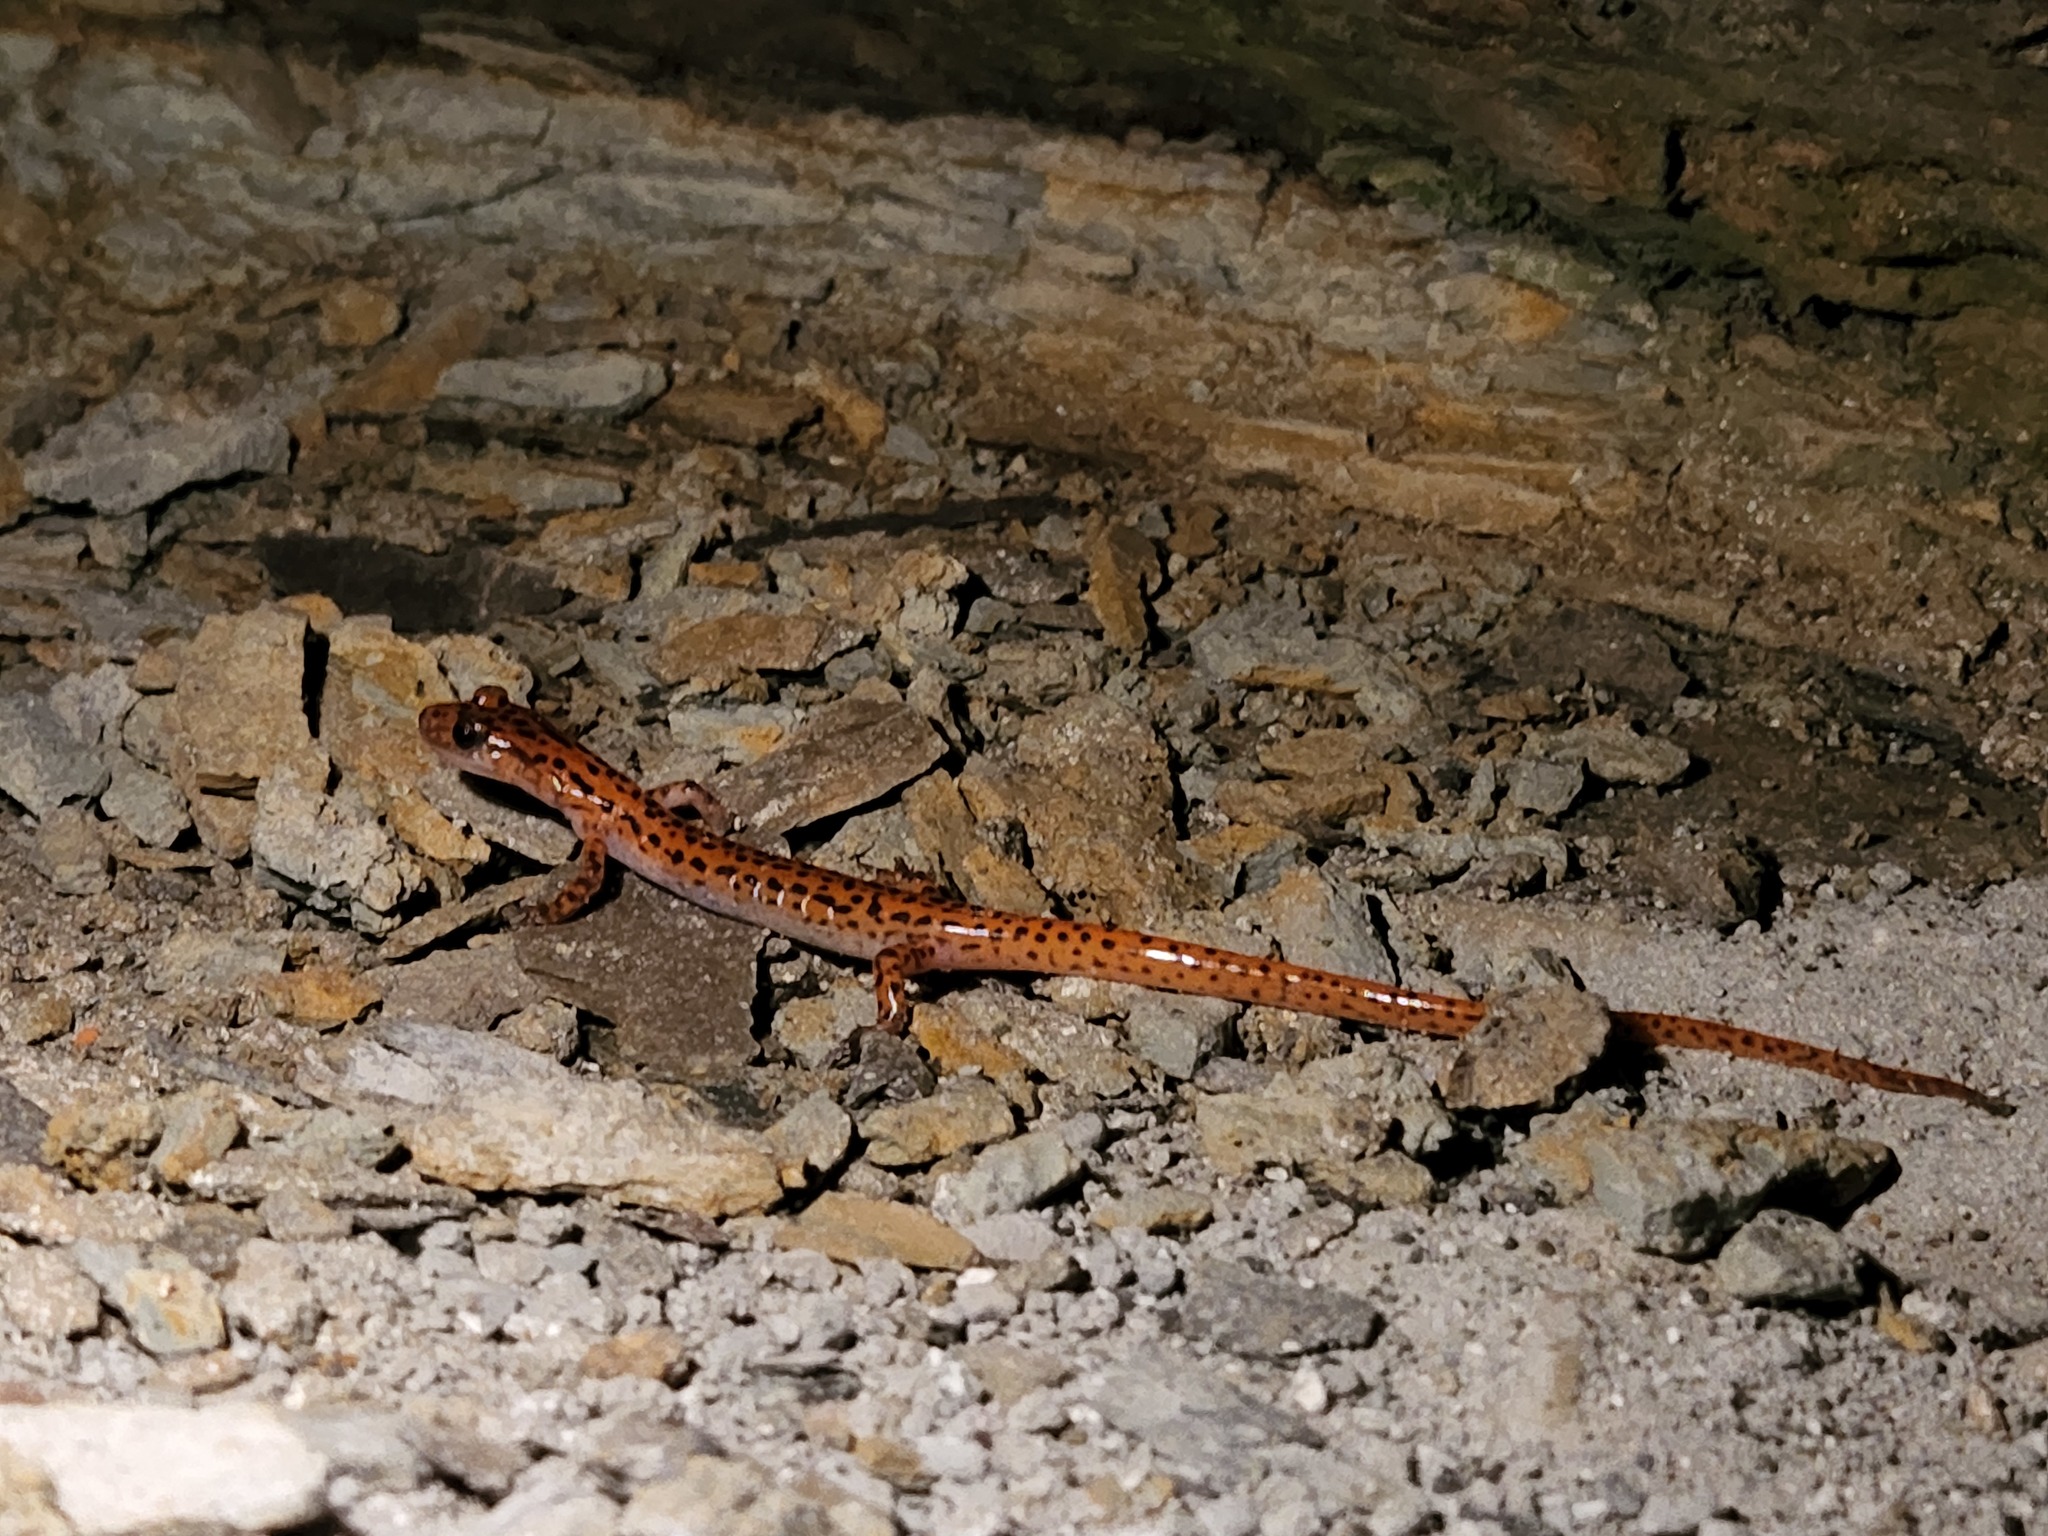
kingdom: Animalia
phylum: Chordata
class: Amphibia
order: Caudata
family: Plethodontidae
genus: Eurycea
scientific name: Eurycea lucifuga
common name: Cave salamander
